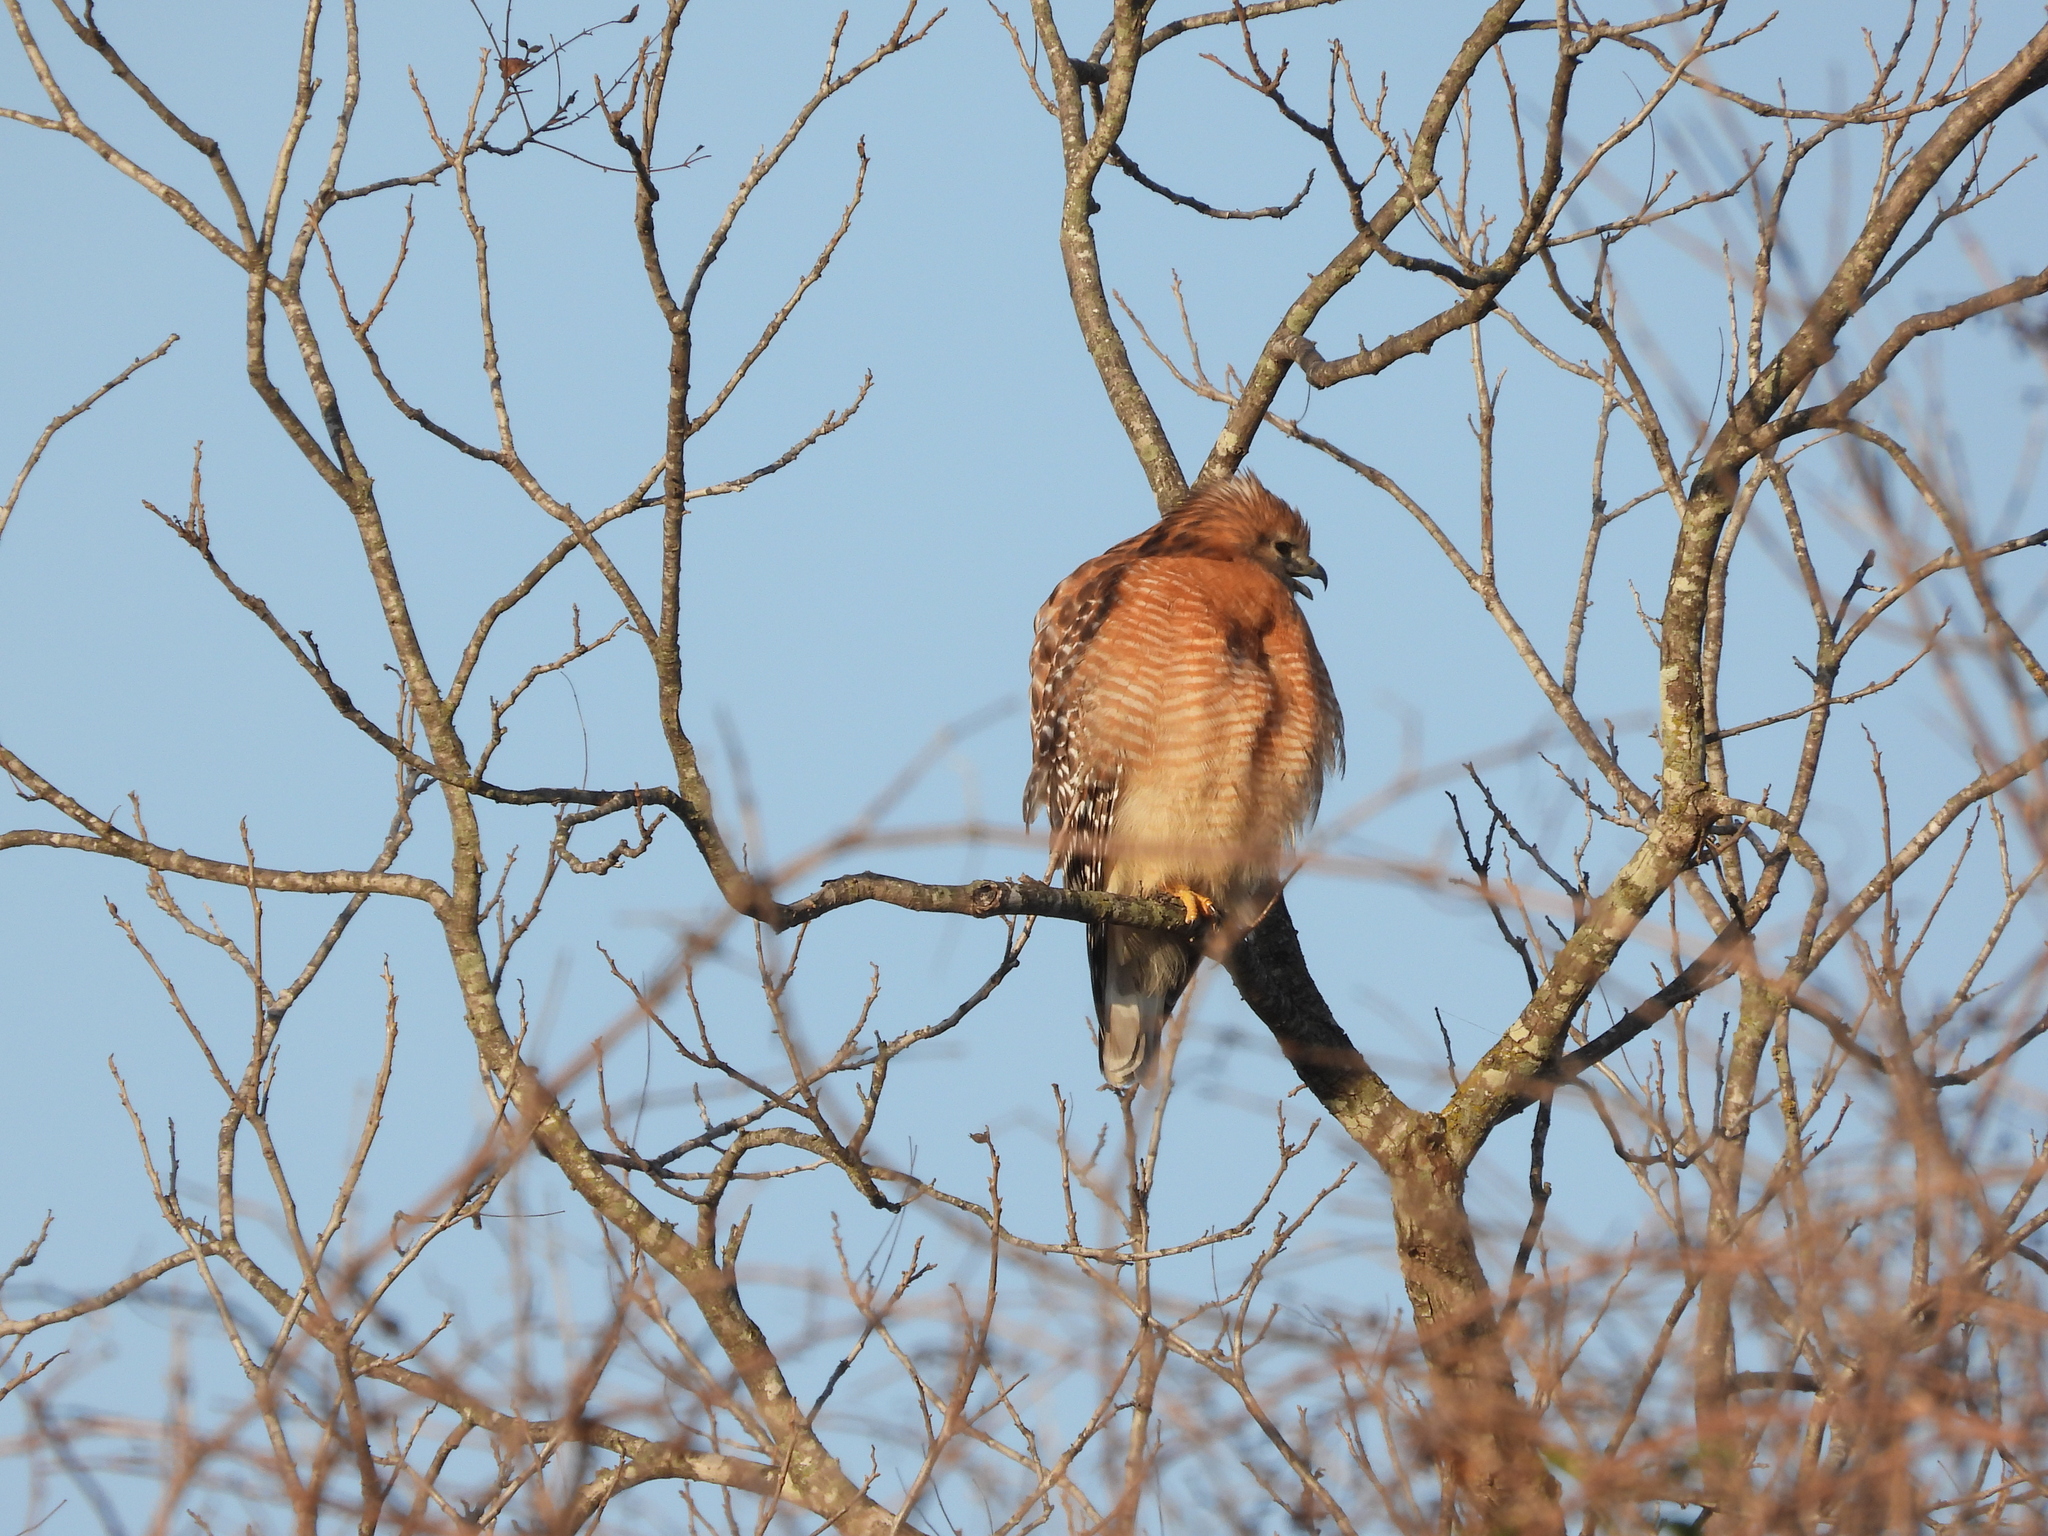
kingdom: Animalia
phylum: Chordata
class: Aves
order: Accipitriformes
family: Accipitridae
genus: Buteo
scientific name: Buteo lineatus
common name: Red-shouldered hawk
